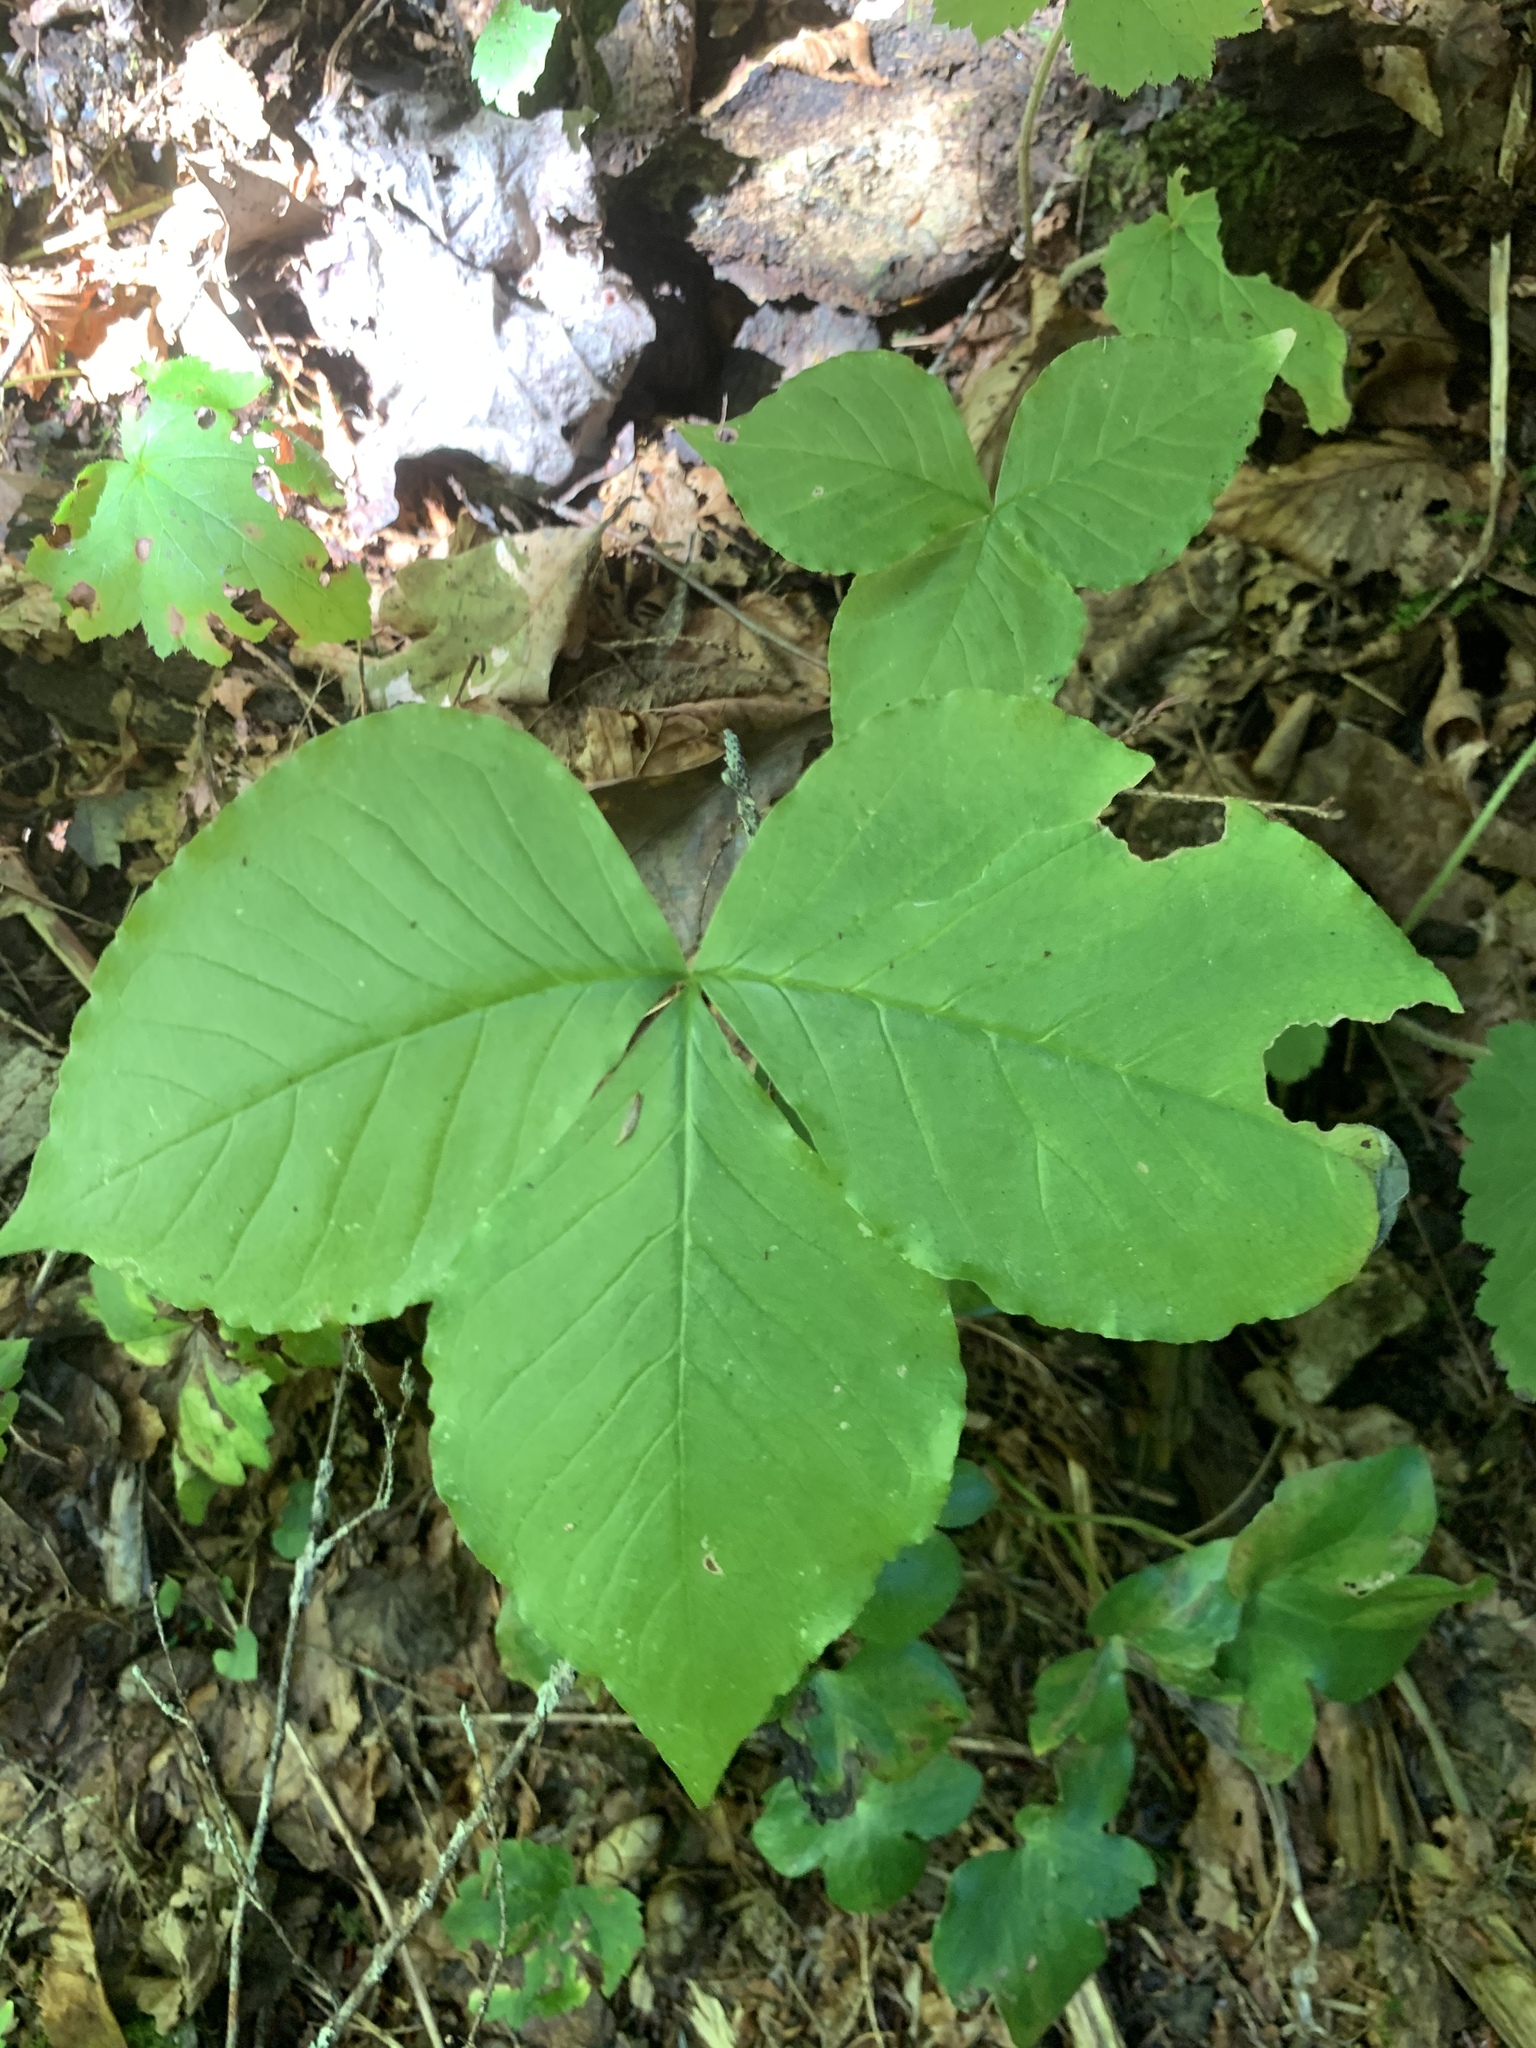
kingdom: Plantae
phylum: Tracheophyta
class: Liliopsida
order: Alismatales
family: Araceae
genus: Arisaema
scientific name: Arisaema triphyllum
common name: Jack-in-the-pulpit
